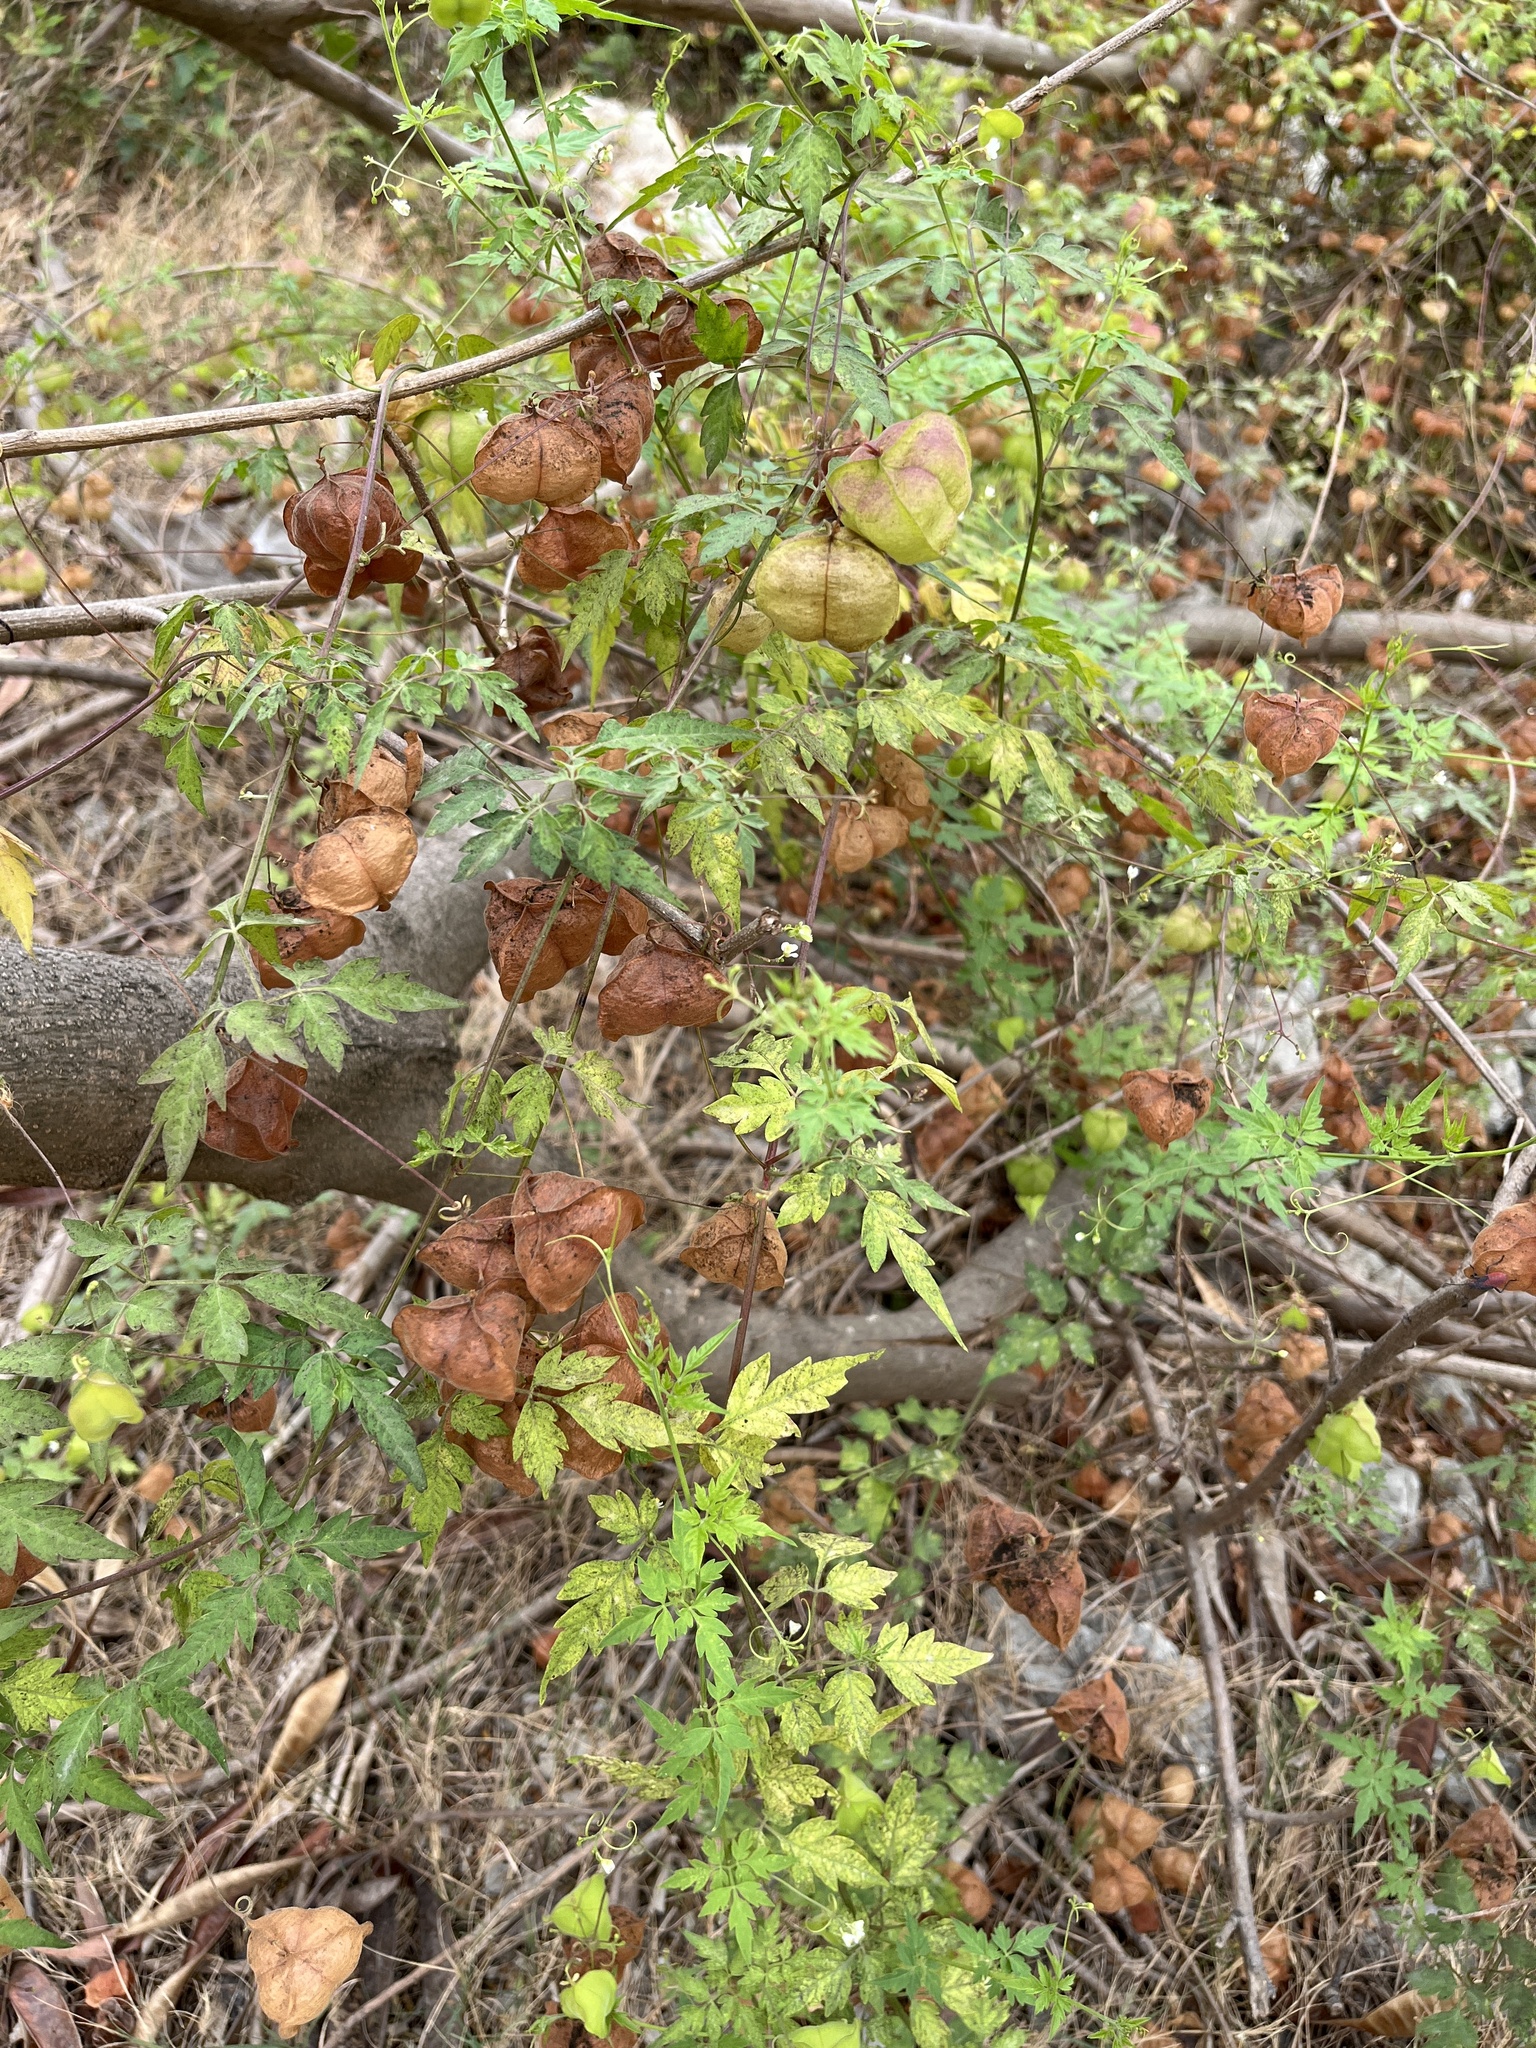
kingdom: Plantae
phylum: Tracheophyta
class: Magnoliopsida
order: Sapindales
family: Sapindaceae
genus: Cardiospermum
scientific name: Cardiospermum halicacabum
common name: Balloon vine
